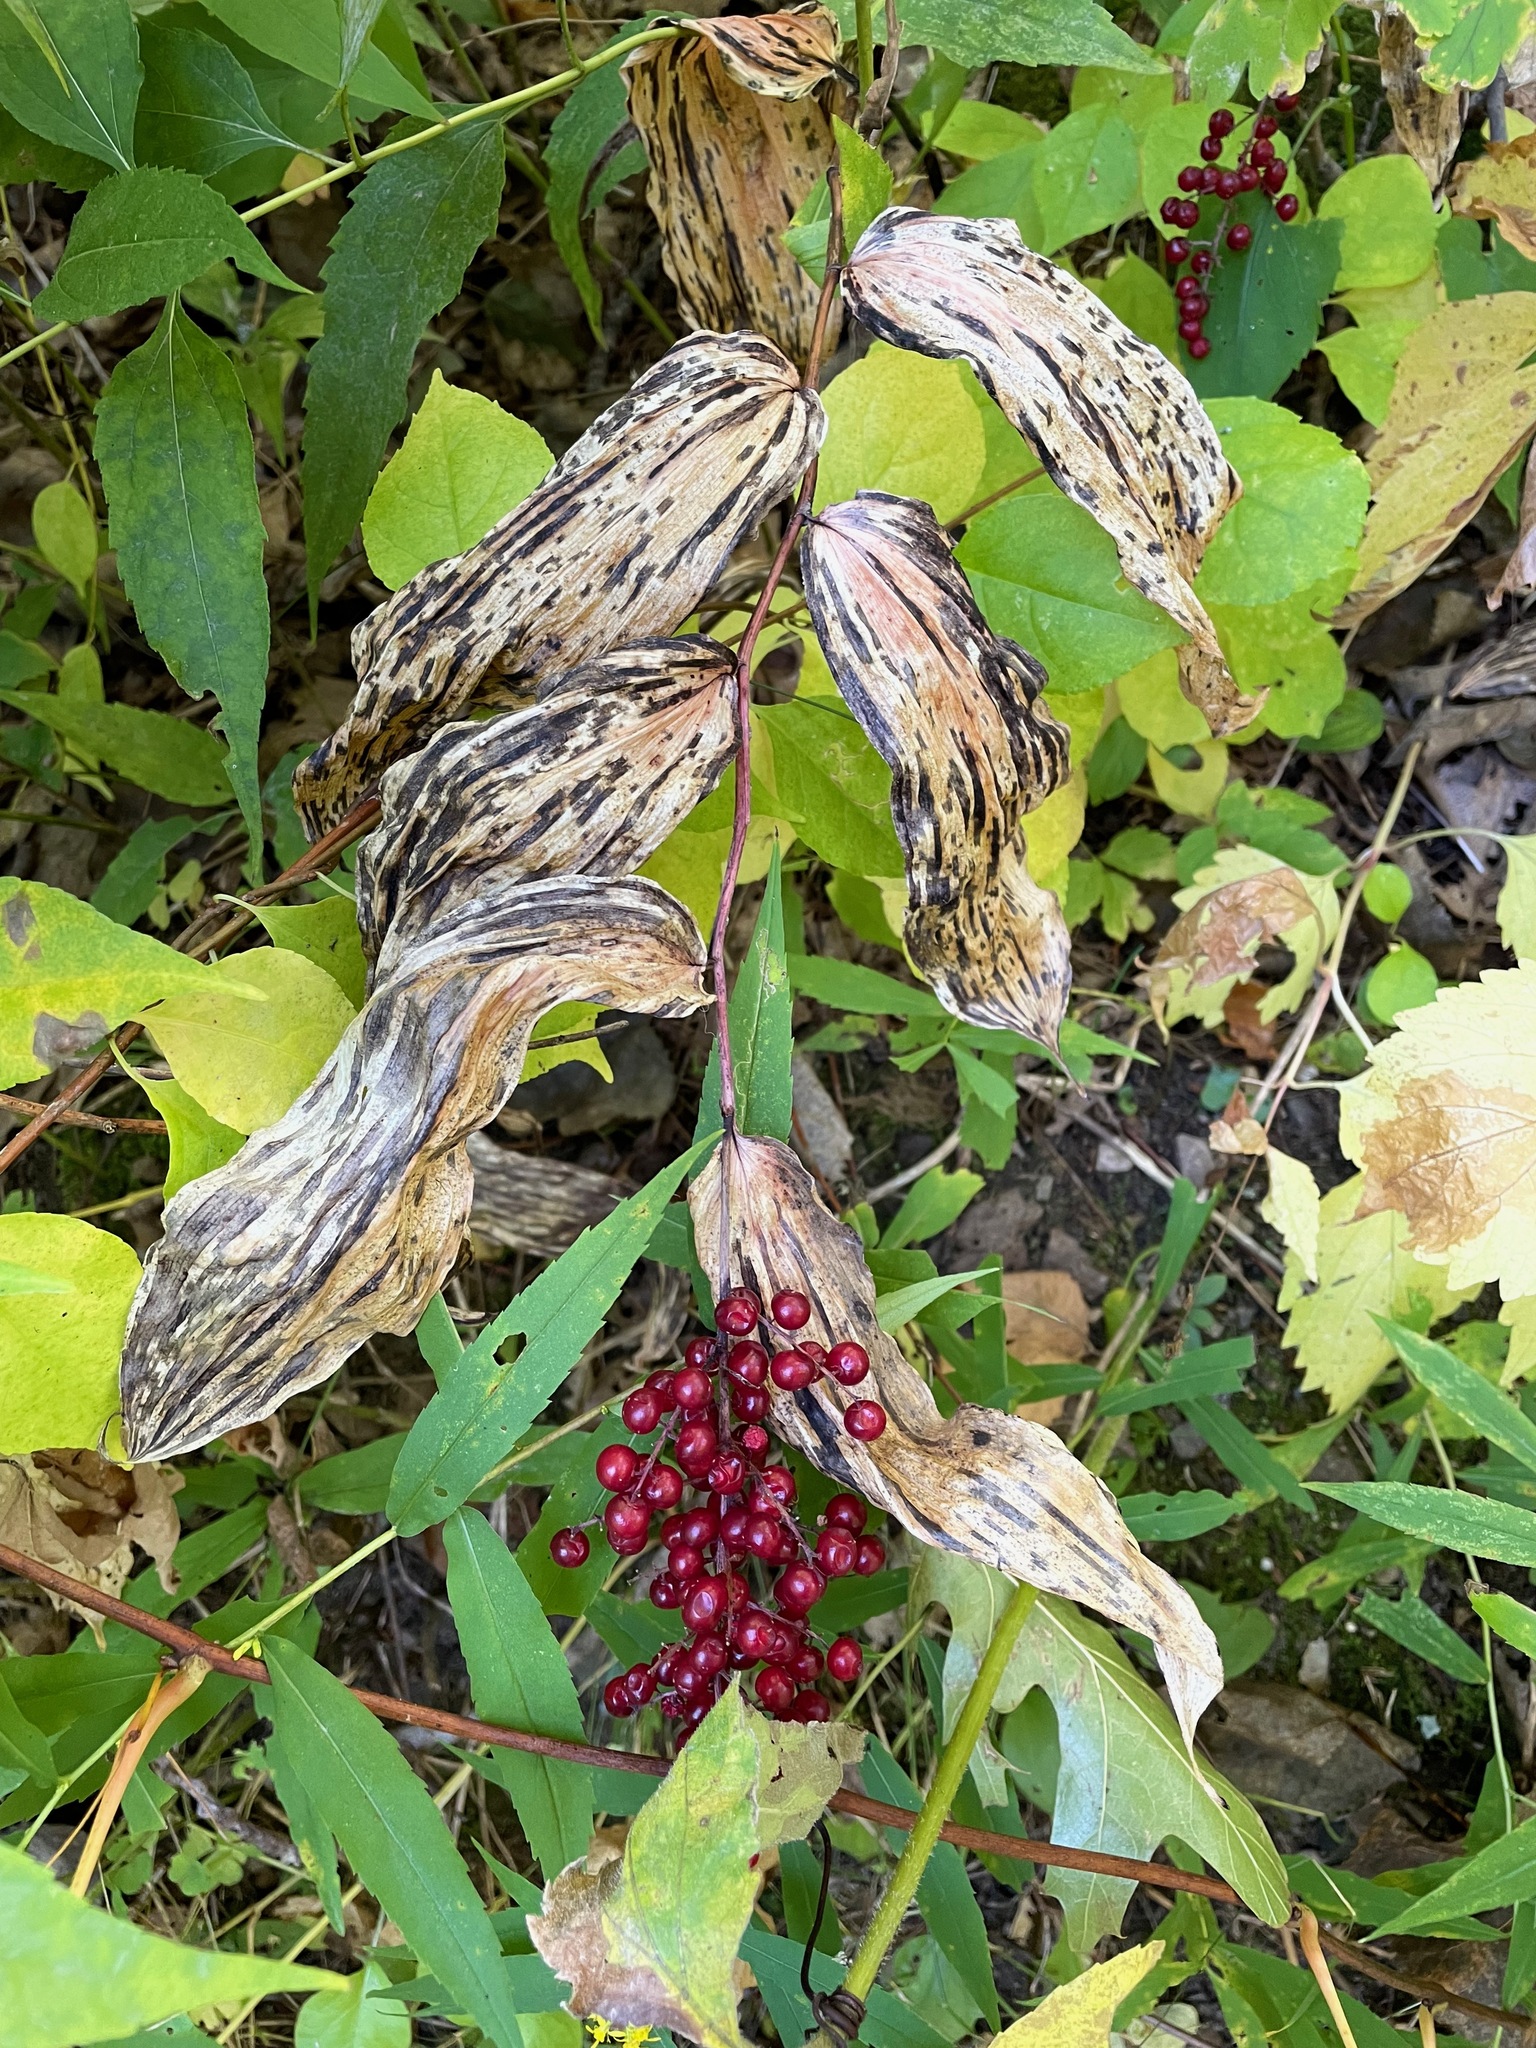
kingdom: Plantae
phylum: Tracheophyta
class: Liliopsida
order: Asparagales
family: Asparagaceae
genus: Maianthemum
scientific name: Maianthemum racemosum
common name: False spikenard
